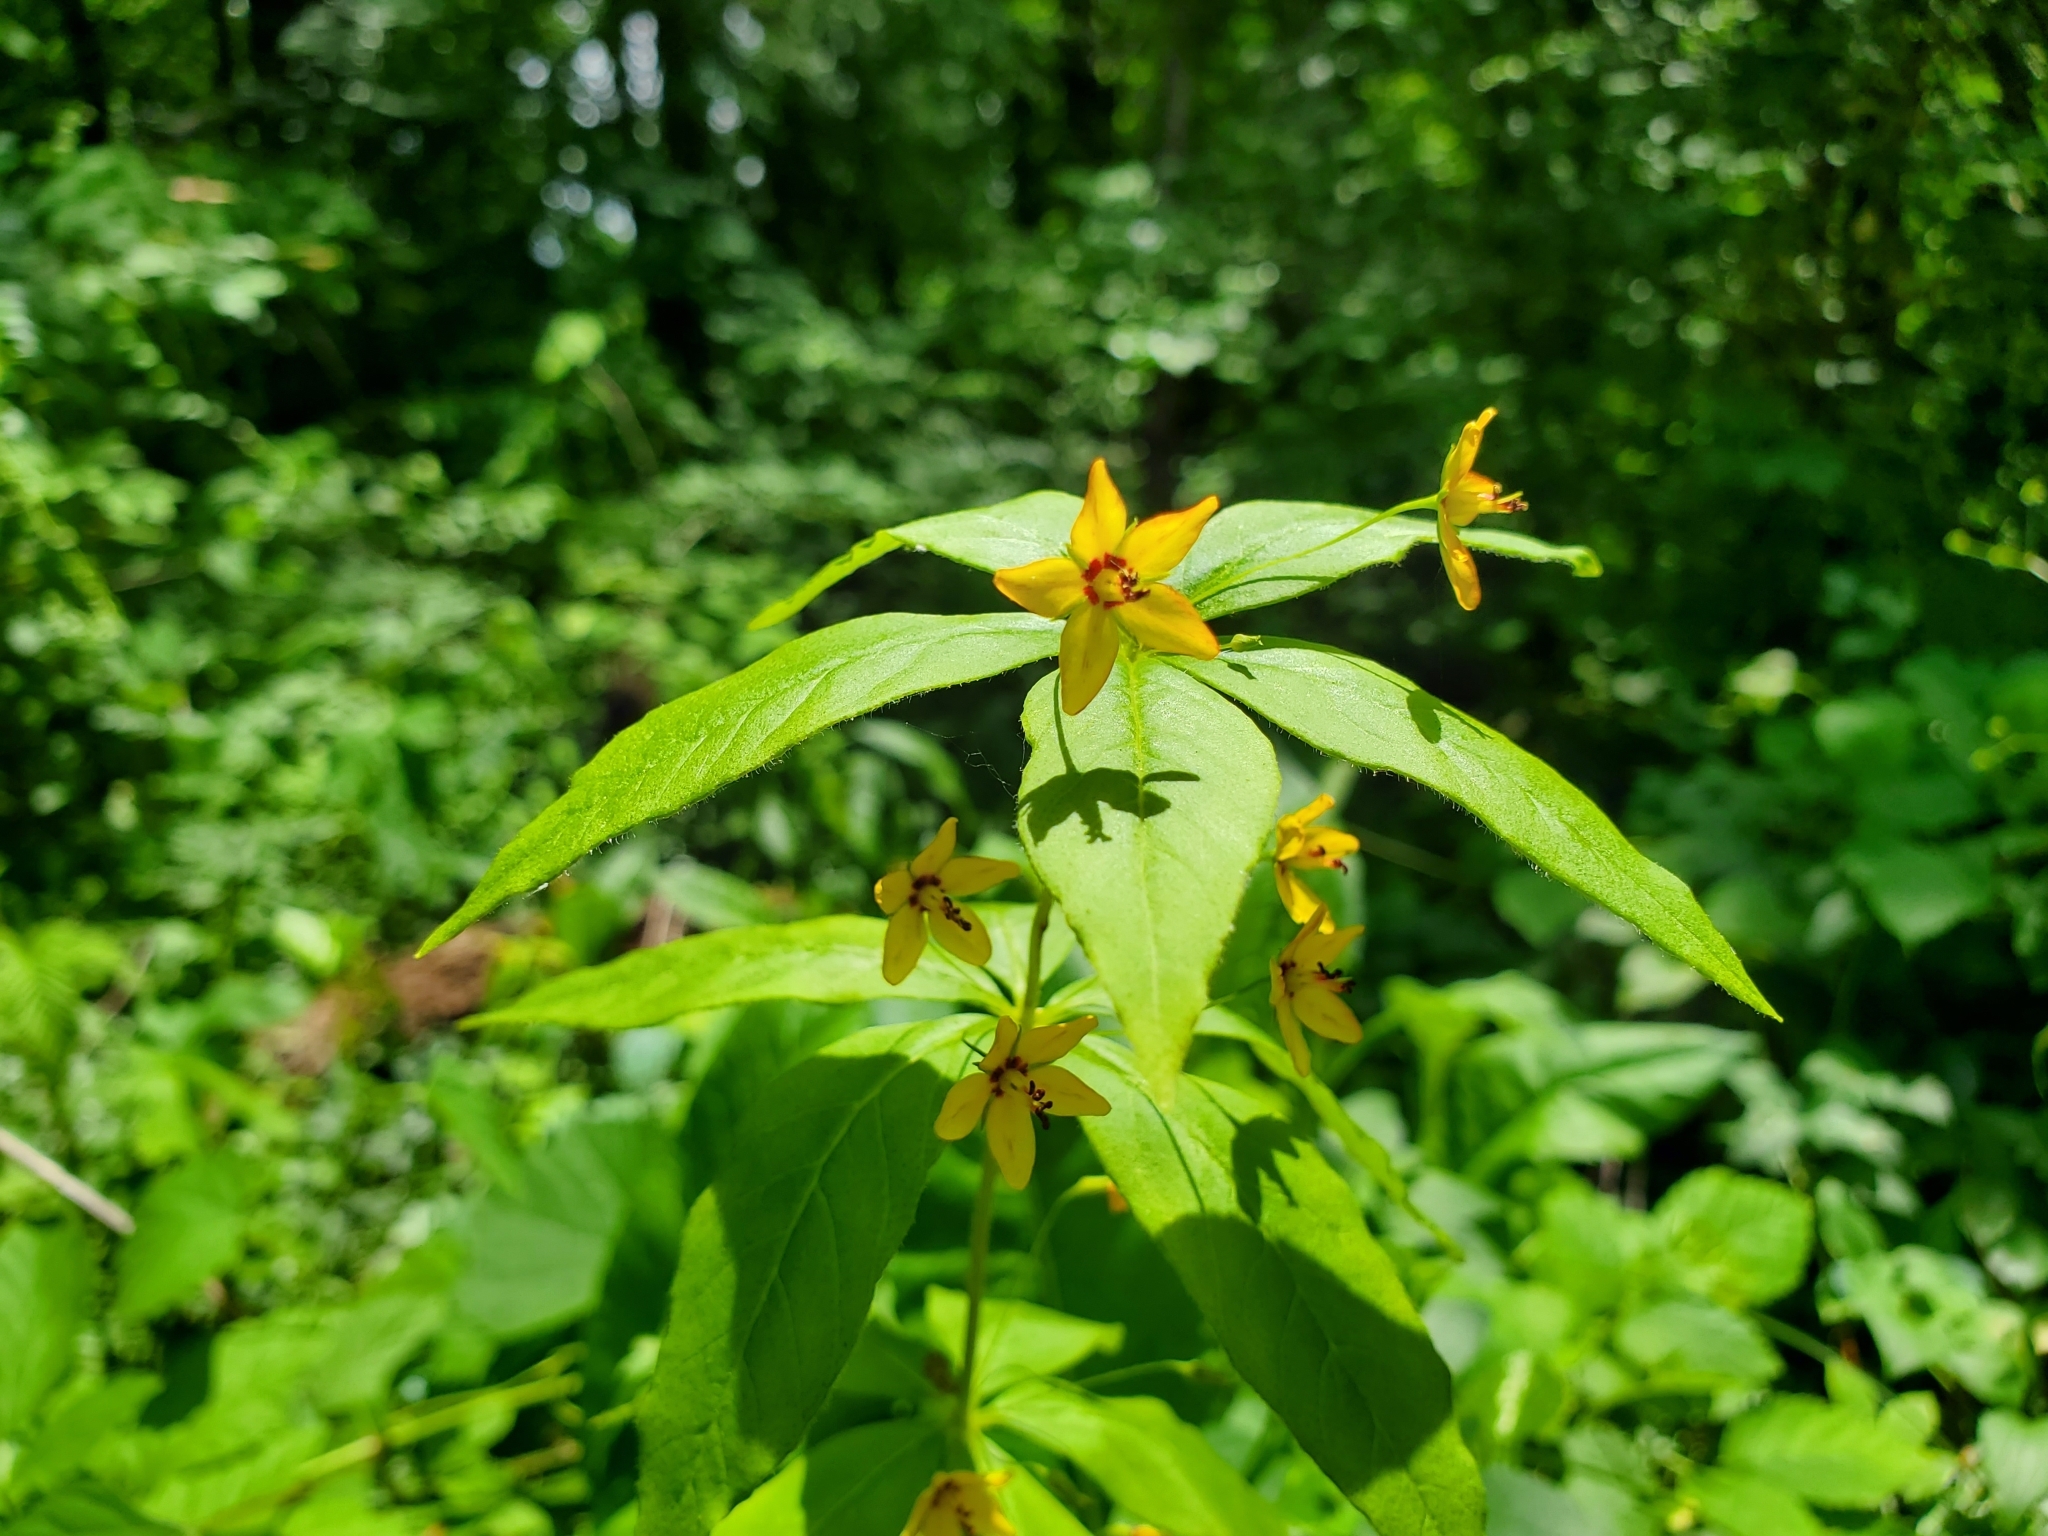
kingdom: Plantae
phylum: Tracheophyta
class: Magnoliopsida
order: Ericales
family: Primulaceae
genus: Lysimachia
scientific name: Lysimachia quadrifolia
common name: Whorled loosestrife
